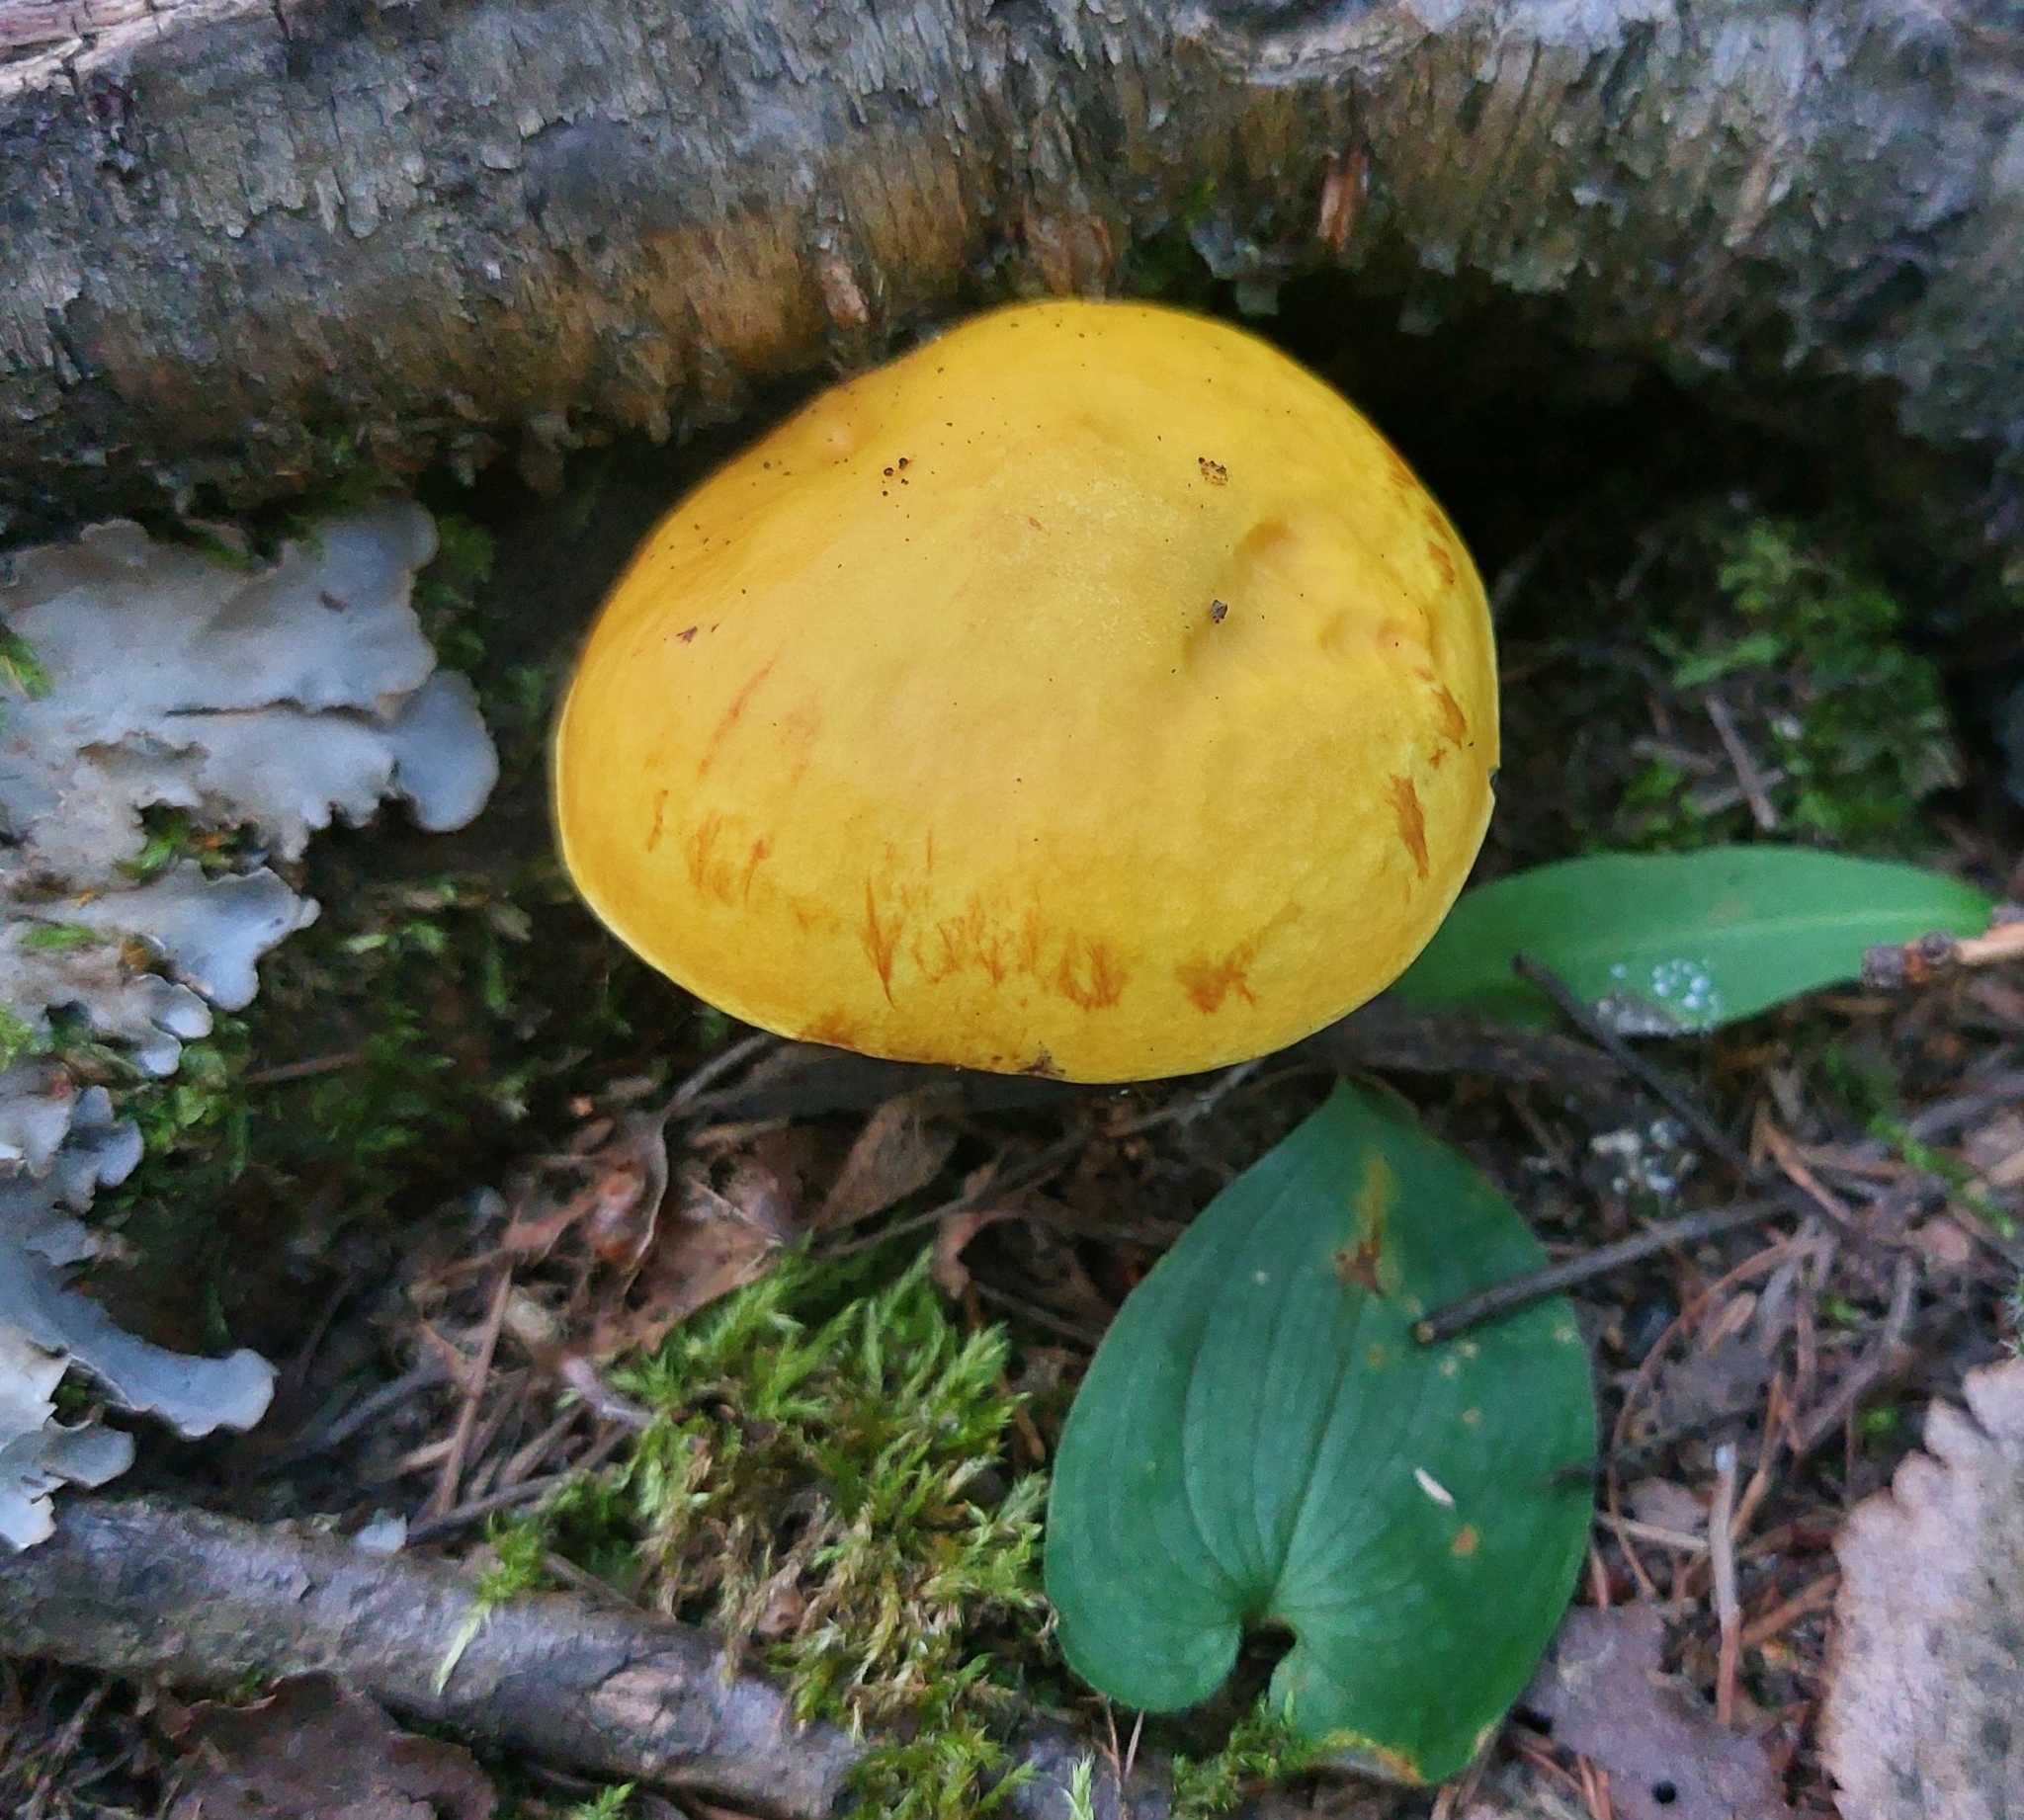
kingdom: Fungi
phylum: Basidiomycota
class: Agaricomycetes
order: Boletales
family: Suillaceae
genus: Suillus
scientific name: Suillus grevillei
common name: Larch bolete
